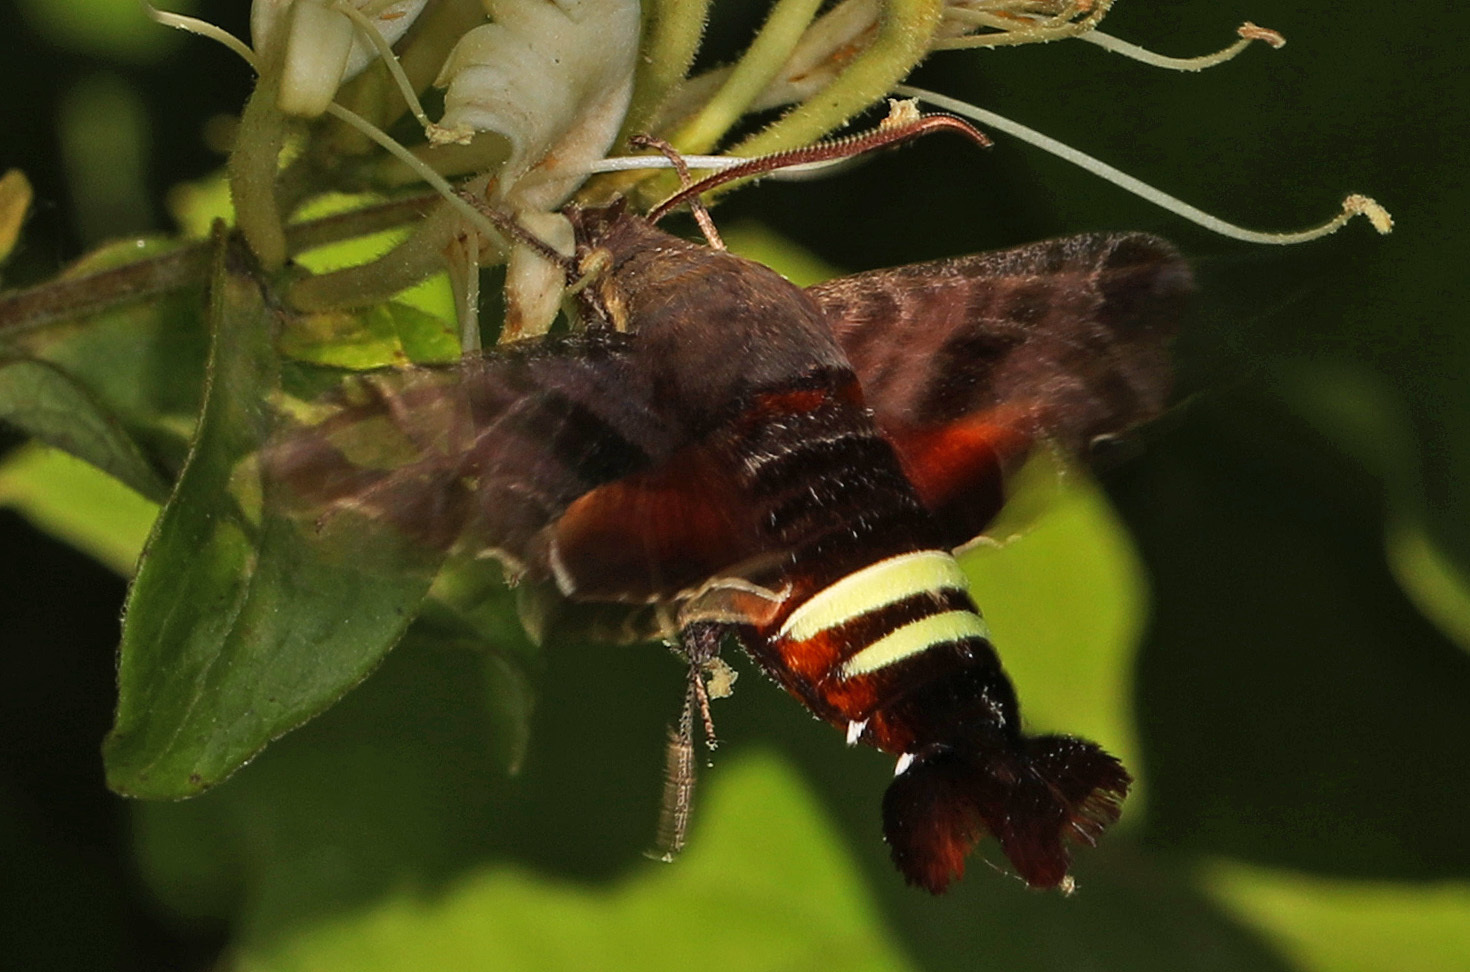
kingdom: Animalia
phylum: Arthropoda
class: Insecta
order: Lepidoptera
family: Sphingidae
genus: Amphion
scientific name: Amphion floridensis
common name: Nessus sphinx
